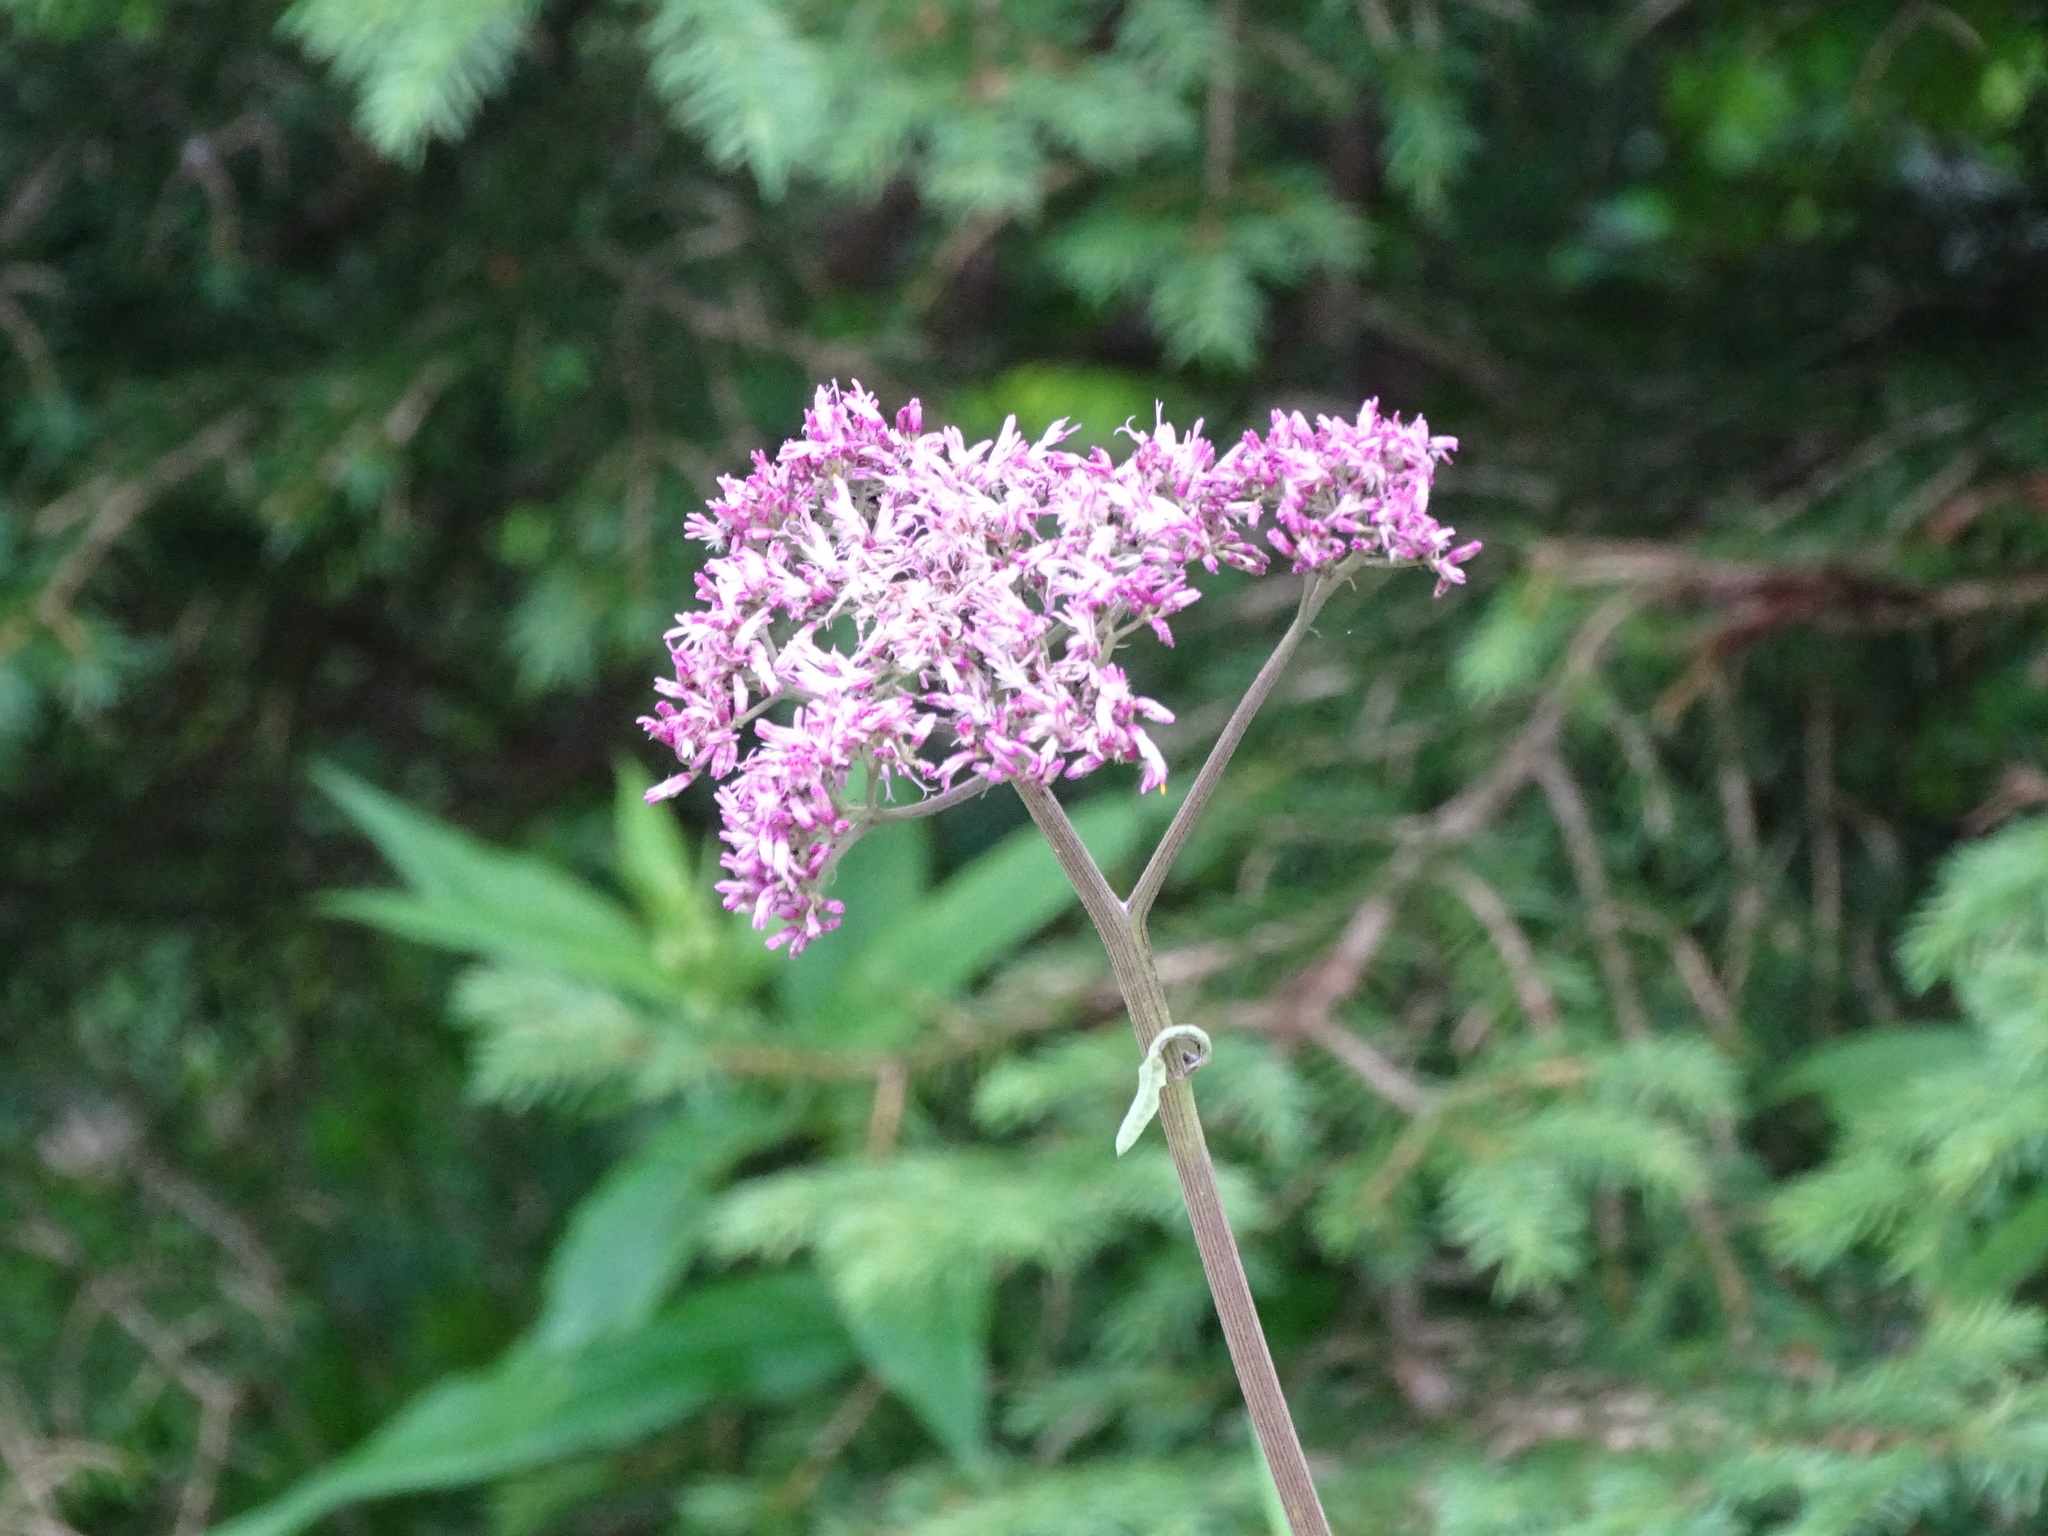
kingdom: Plantae
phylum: Tracheophyta
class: Magnoliopsida
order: Asterales
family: Asteraceae
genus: Adenostyles
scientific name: Adenostyles alliariae
